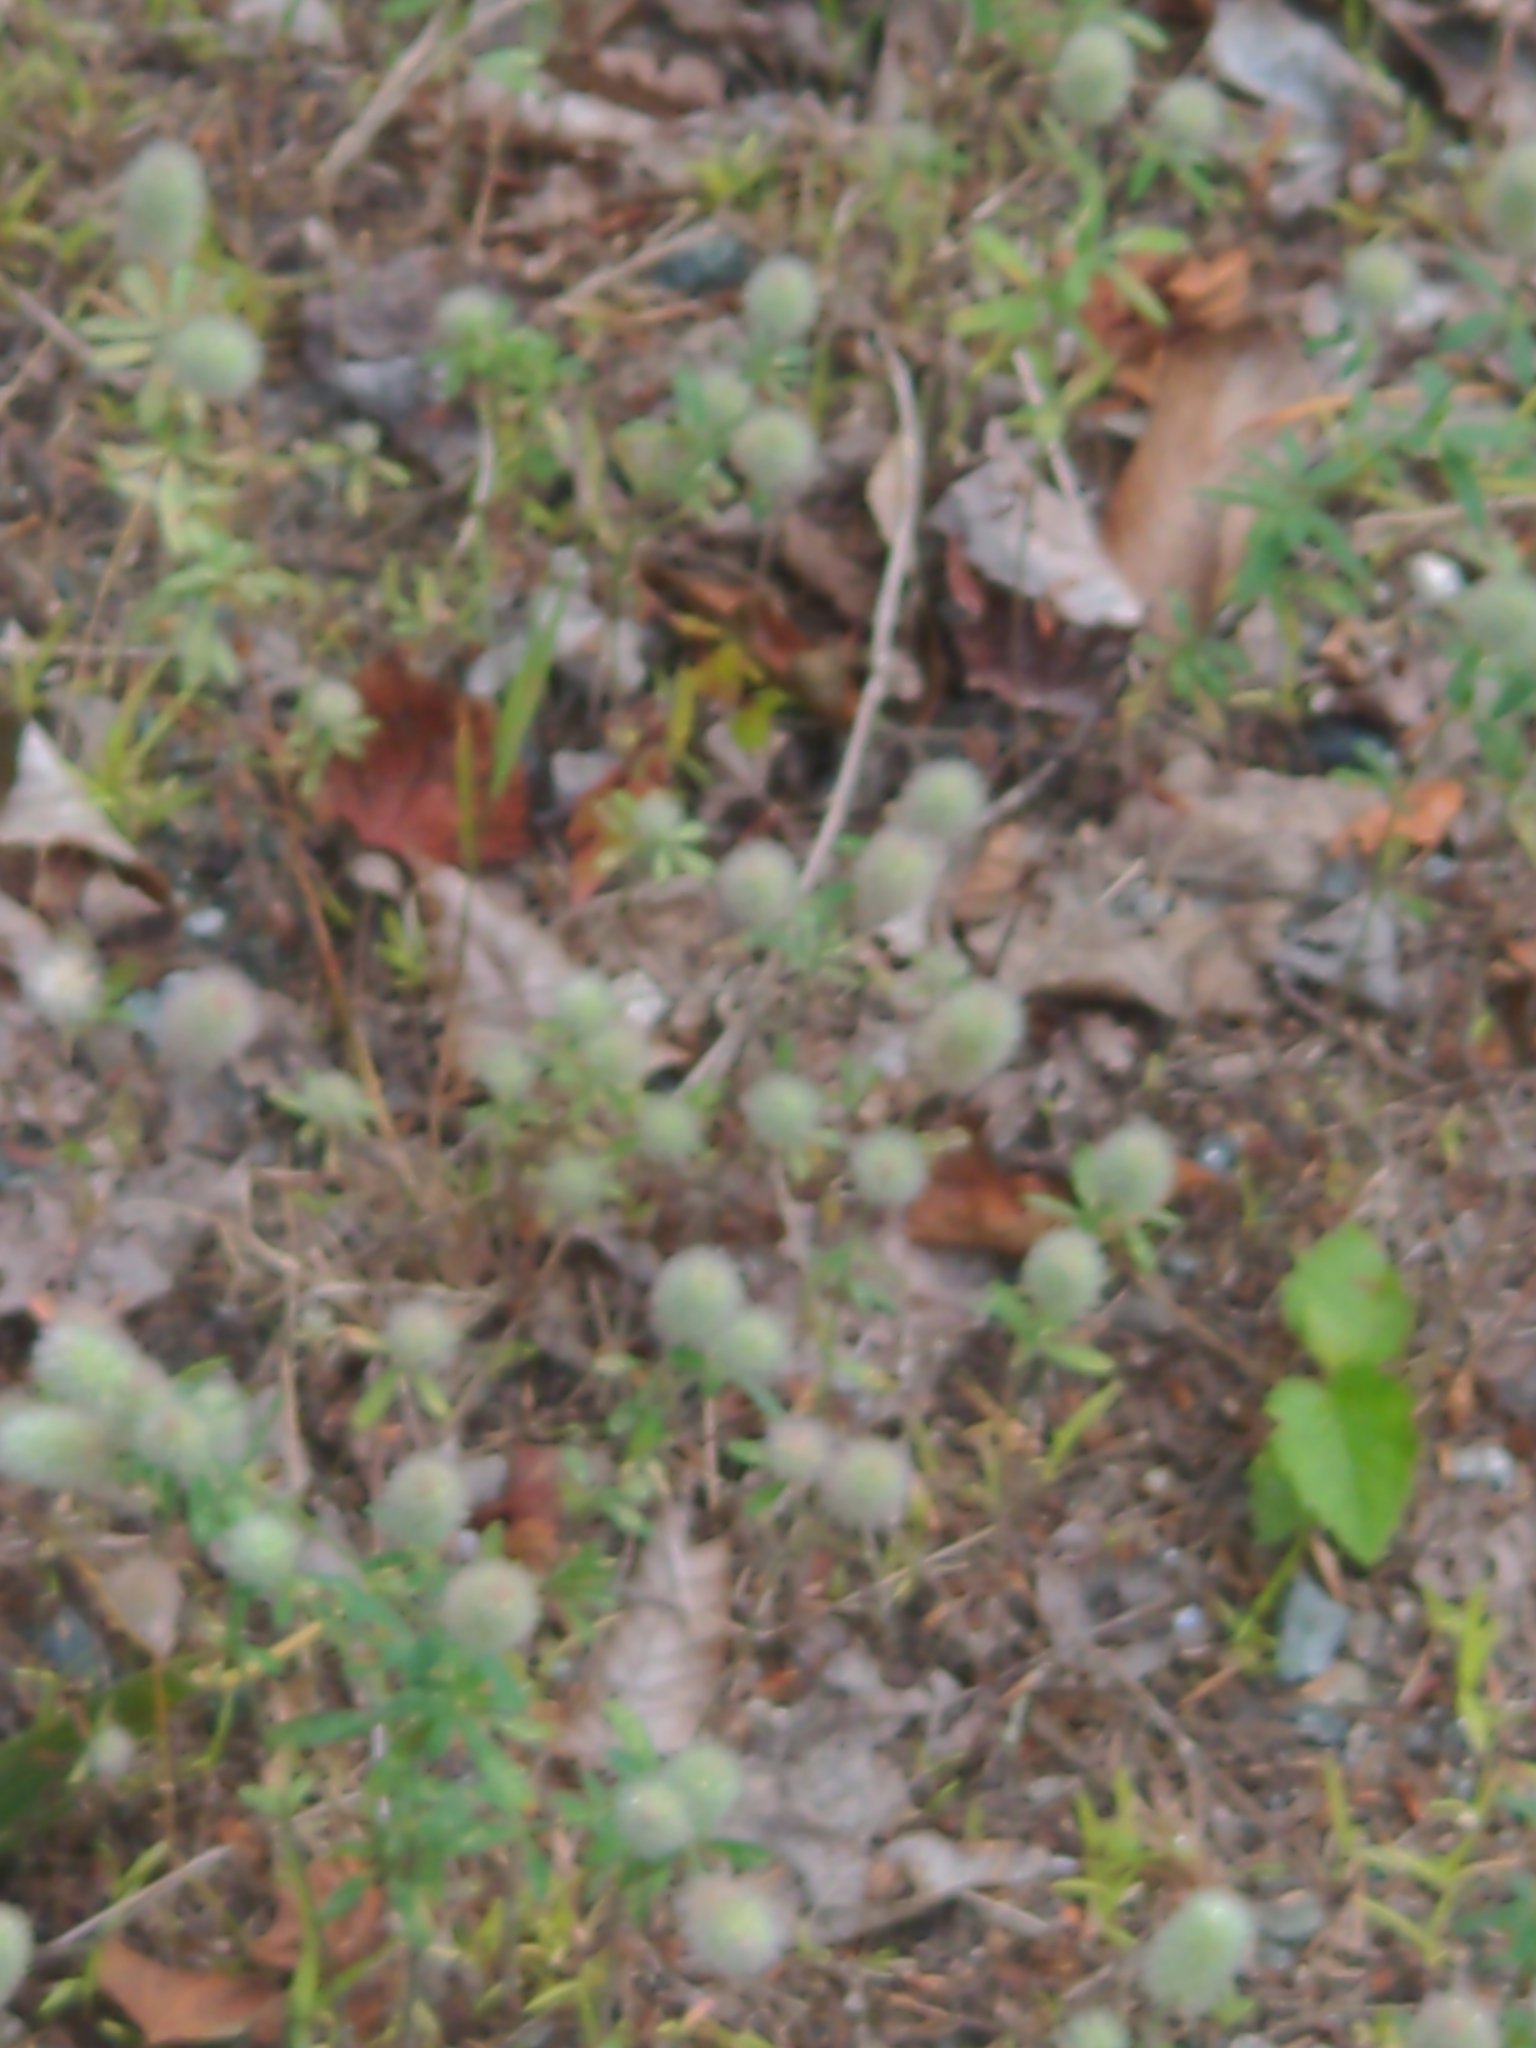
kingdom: Plantae
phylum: Tracheophyta
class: Magnoliopsida
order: Fabales
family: Fabaceae
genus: Trifolium
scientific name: Trifolium arvense
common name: Hare's-foot clover
